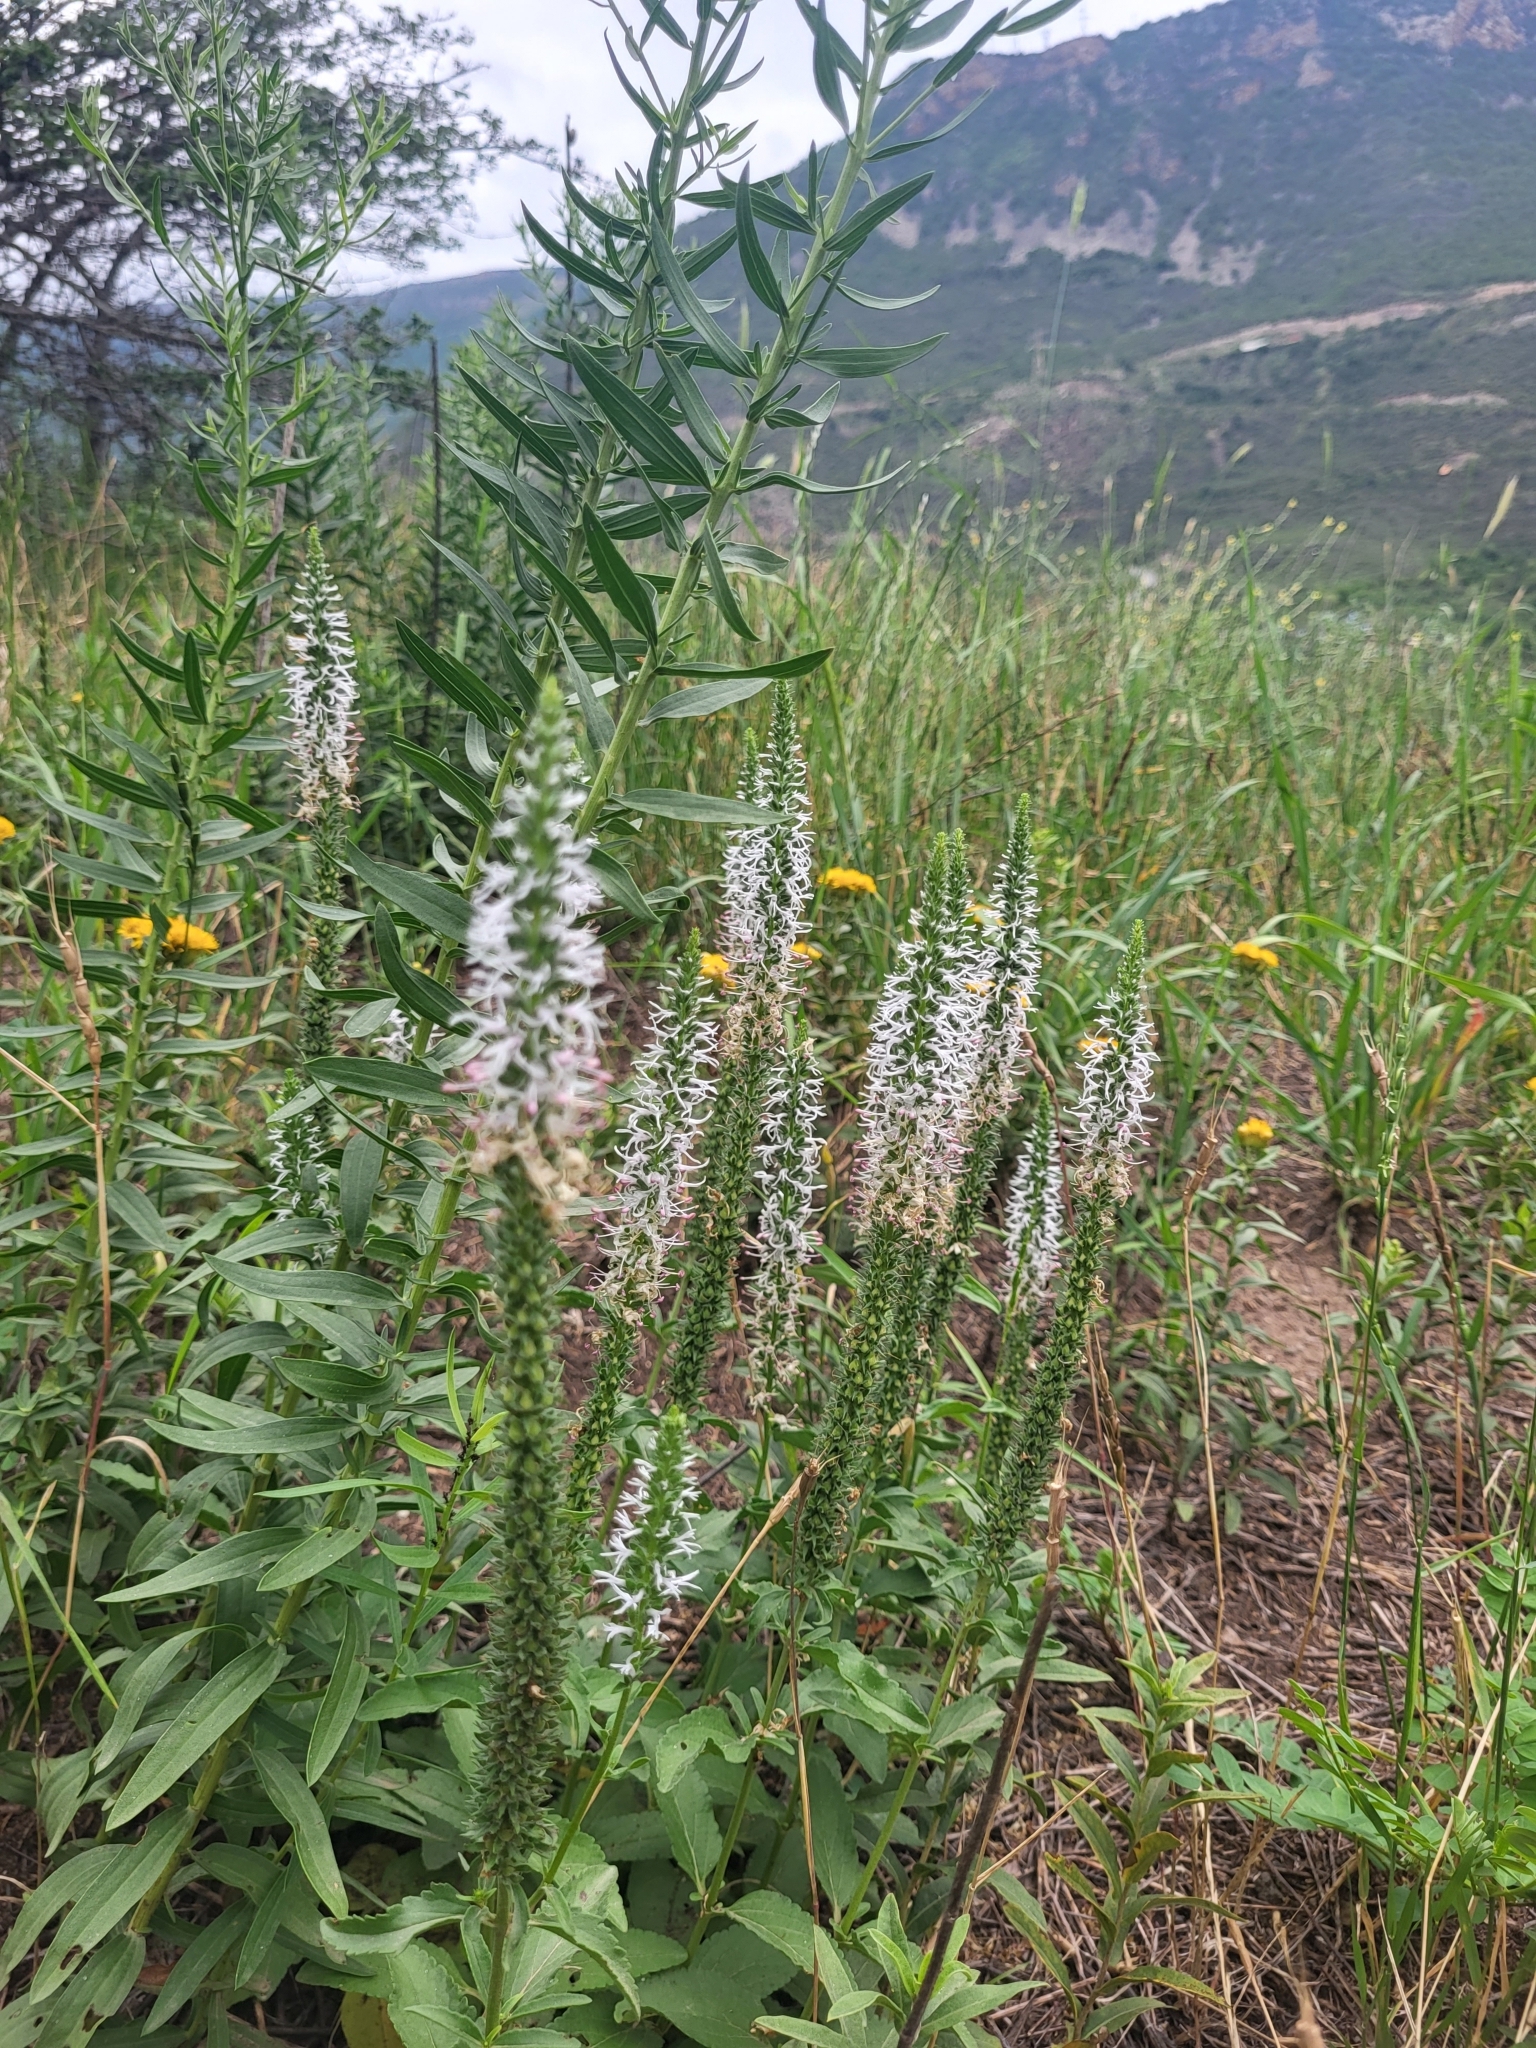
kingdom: Plantae
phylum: Tracheophyta
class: Magnoliopsida
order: Lamiales
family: Plantaginaceae
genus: Veronica
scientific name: Veronica orchidea
